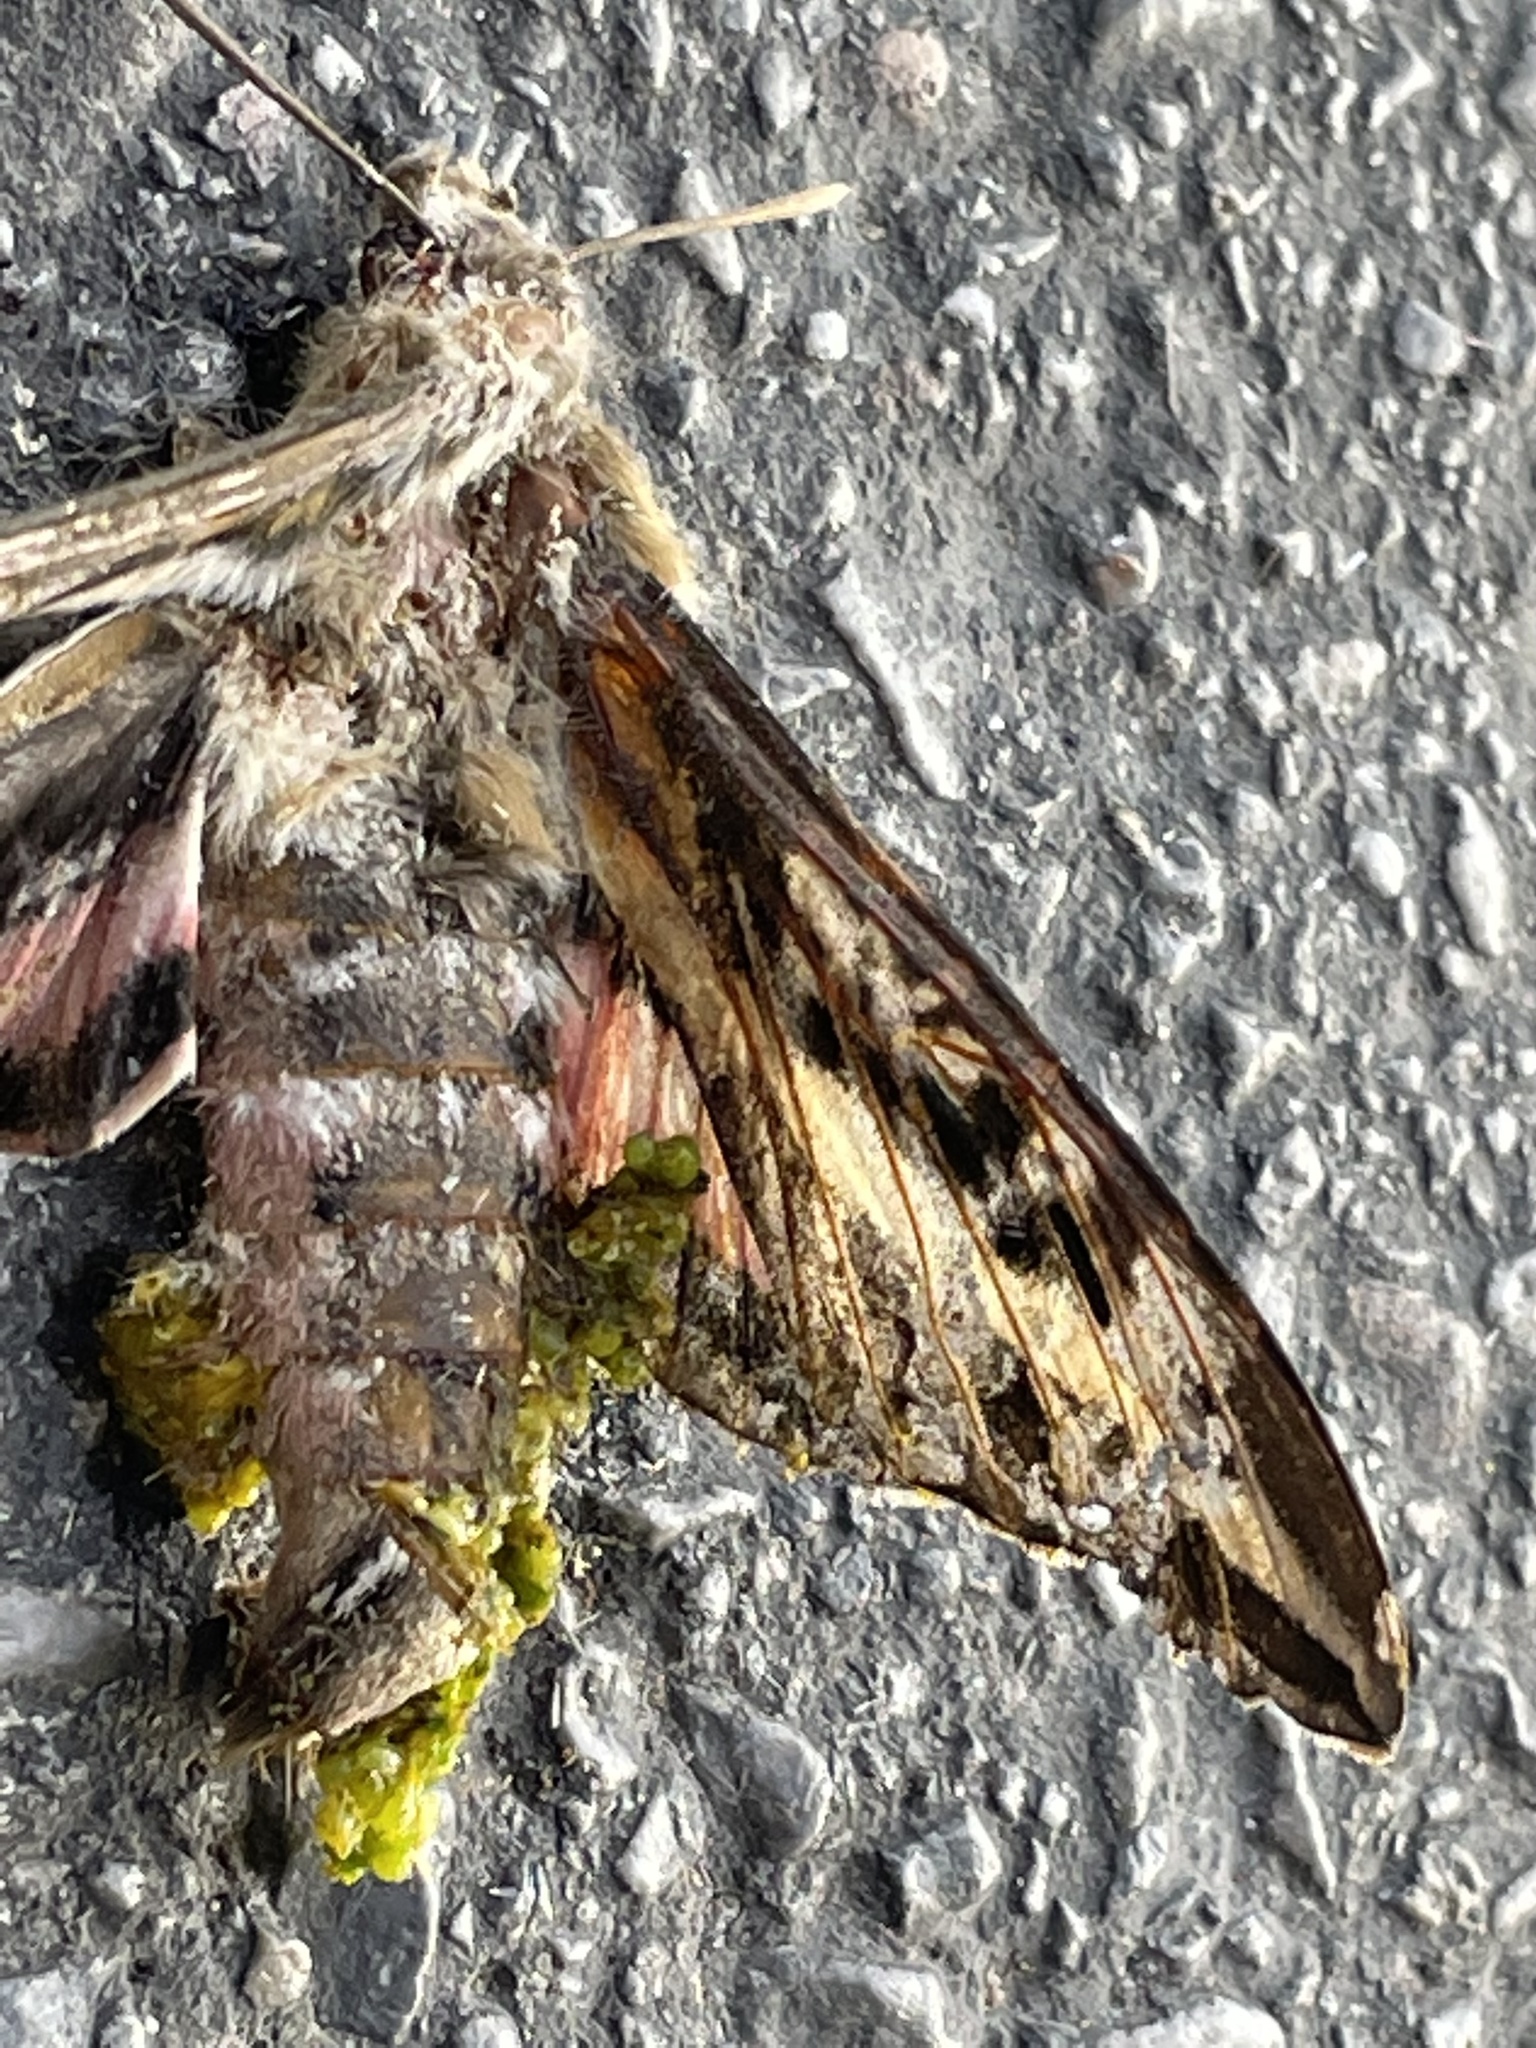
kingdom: Animalia
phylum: Arthropoda
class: Insecta
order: Lepidoptera
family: Sphingidae
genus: Hyles
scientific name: Hyles lineata
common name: White-lined sphinx
